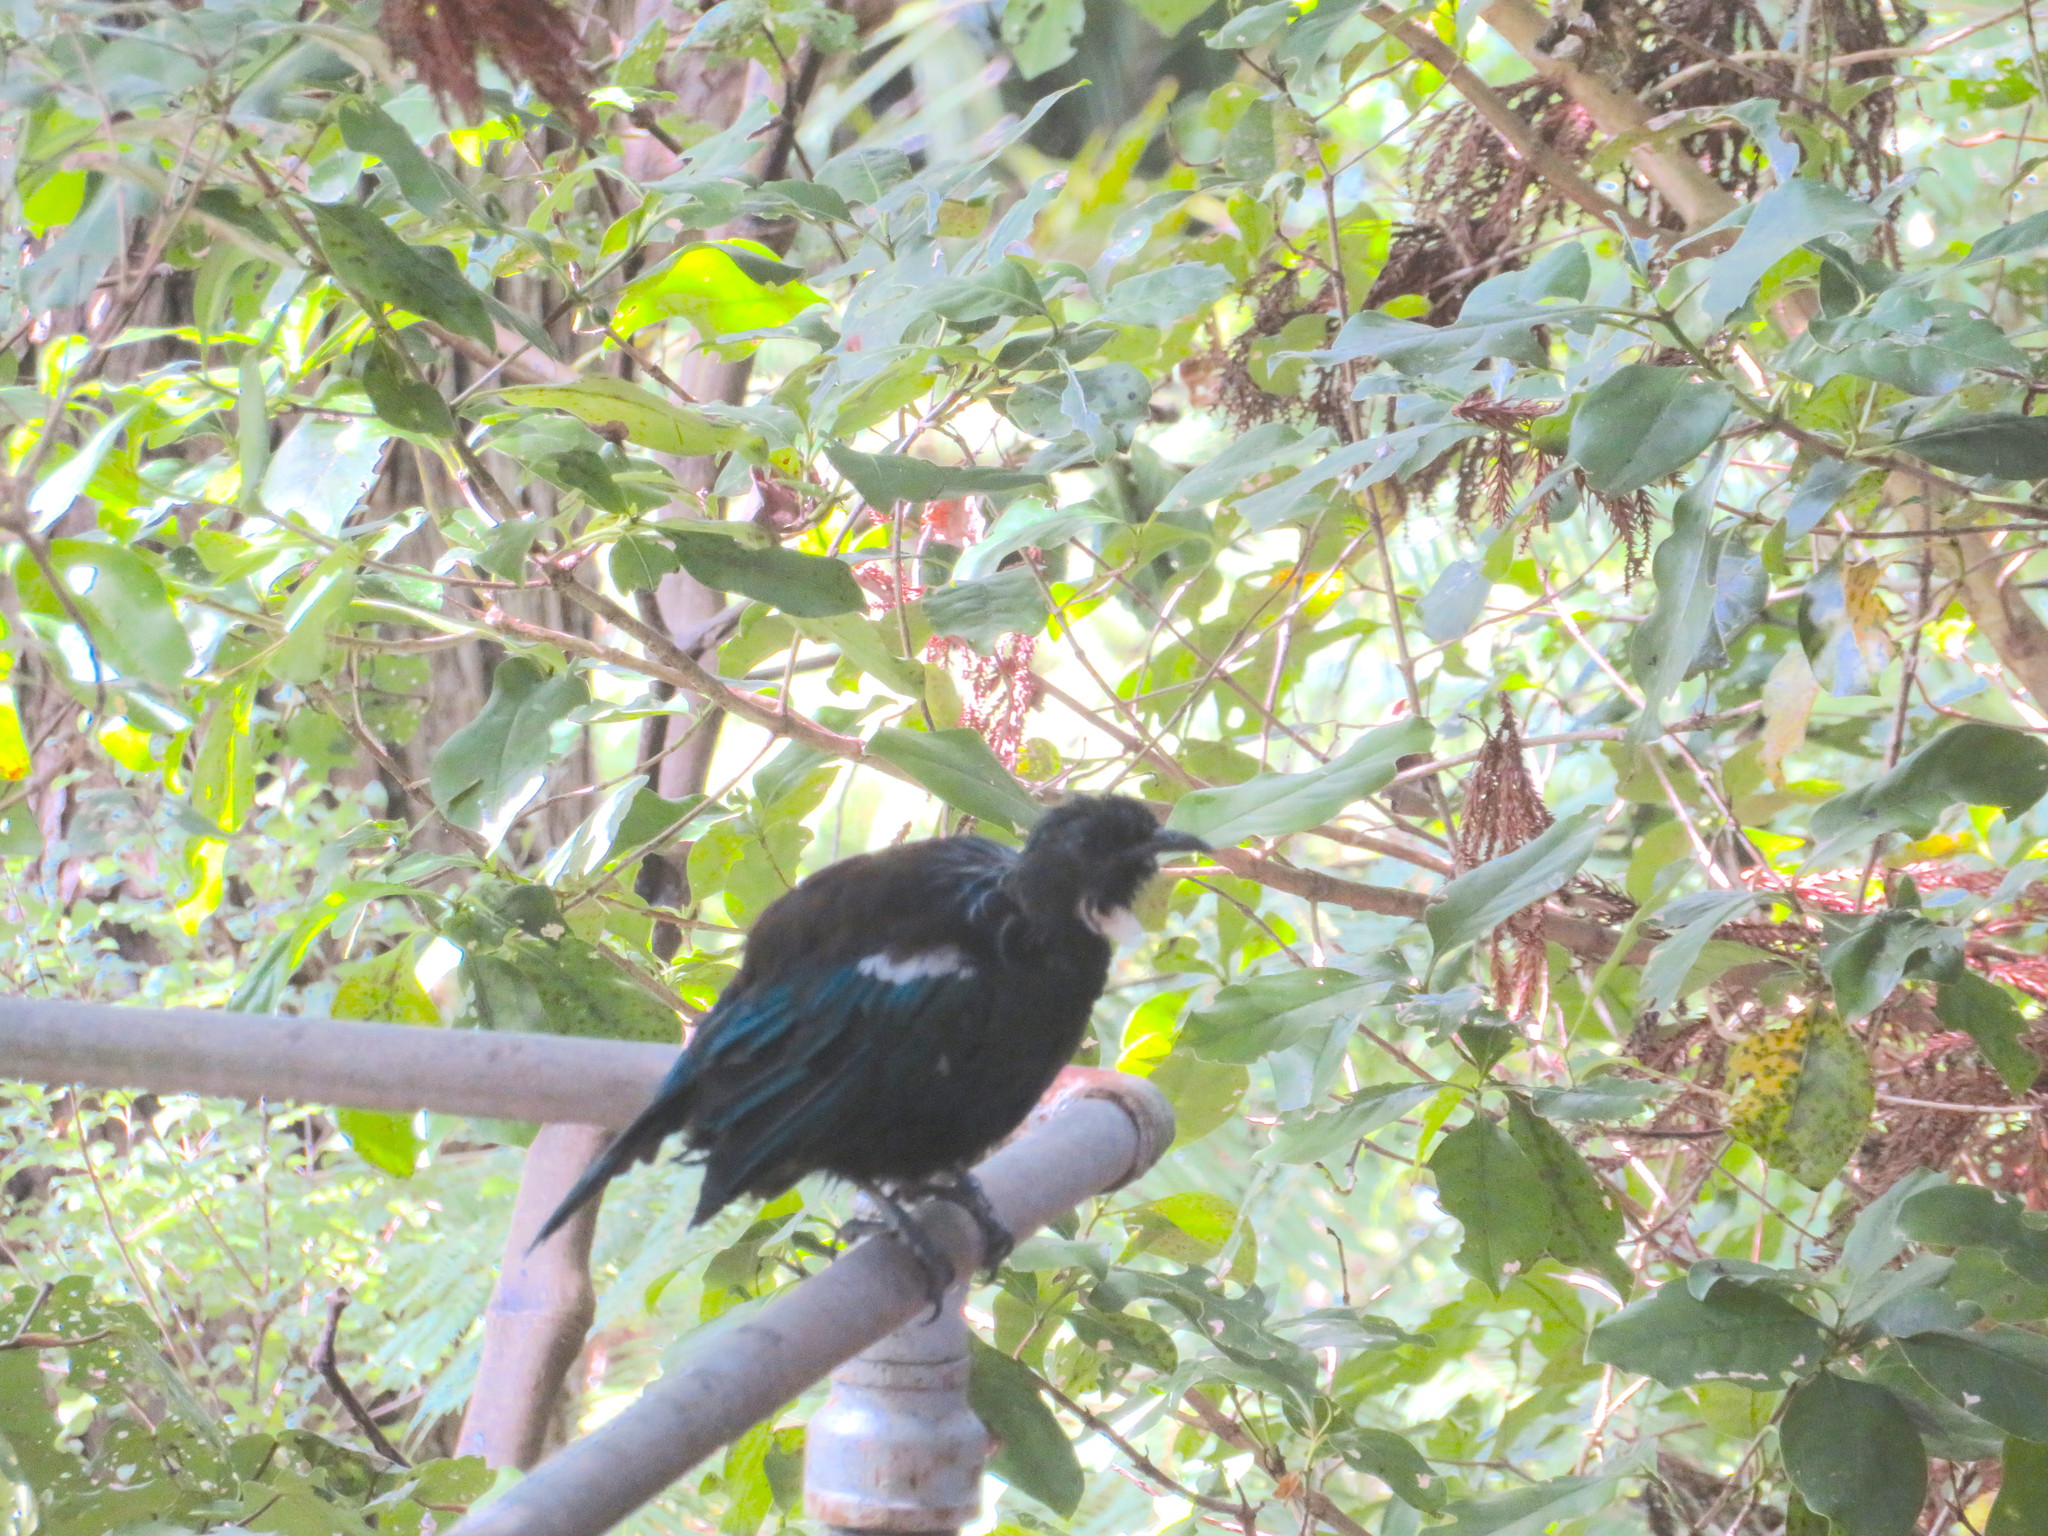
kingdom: Animalia
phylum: Chordata
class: Aves
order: Passeriformes
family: Meliphagidae
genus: Prosthemadera
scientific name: Prosthemadera novaeseelandiae
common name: Tui
